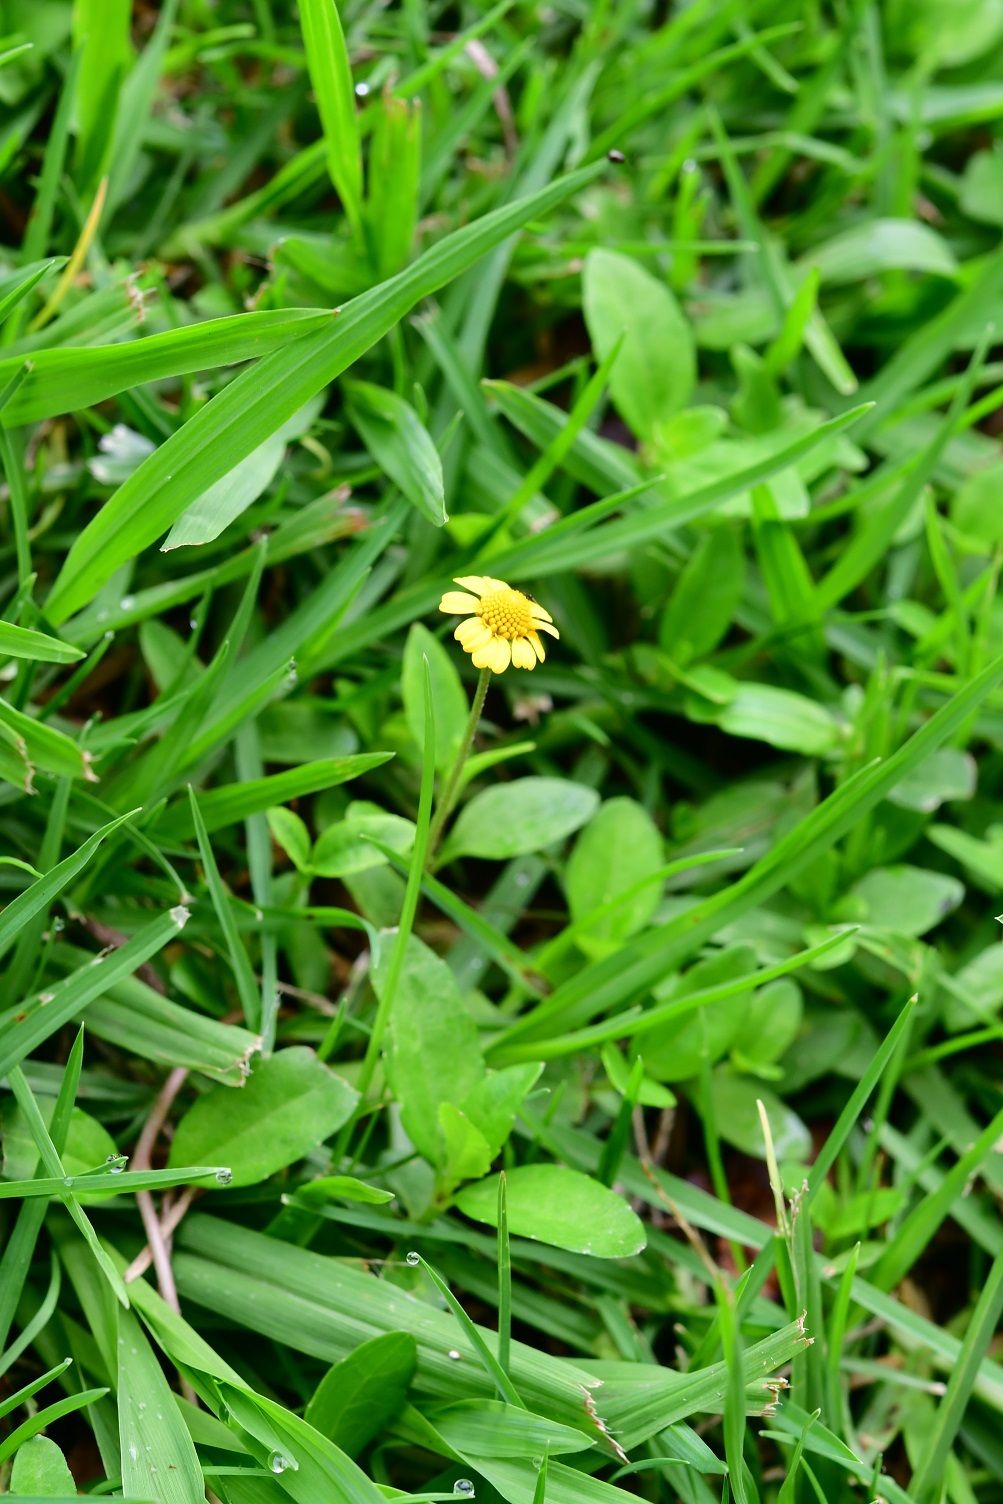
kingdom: Plantae
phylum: Tracheophyta
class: Magnoliopsida
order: Asterales
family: Asteraceae
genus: Heliopsis
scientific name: Heliopsis buphthalmoides
